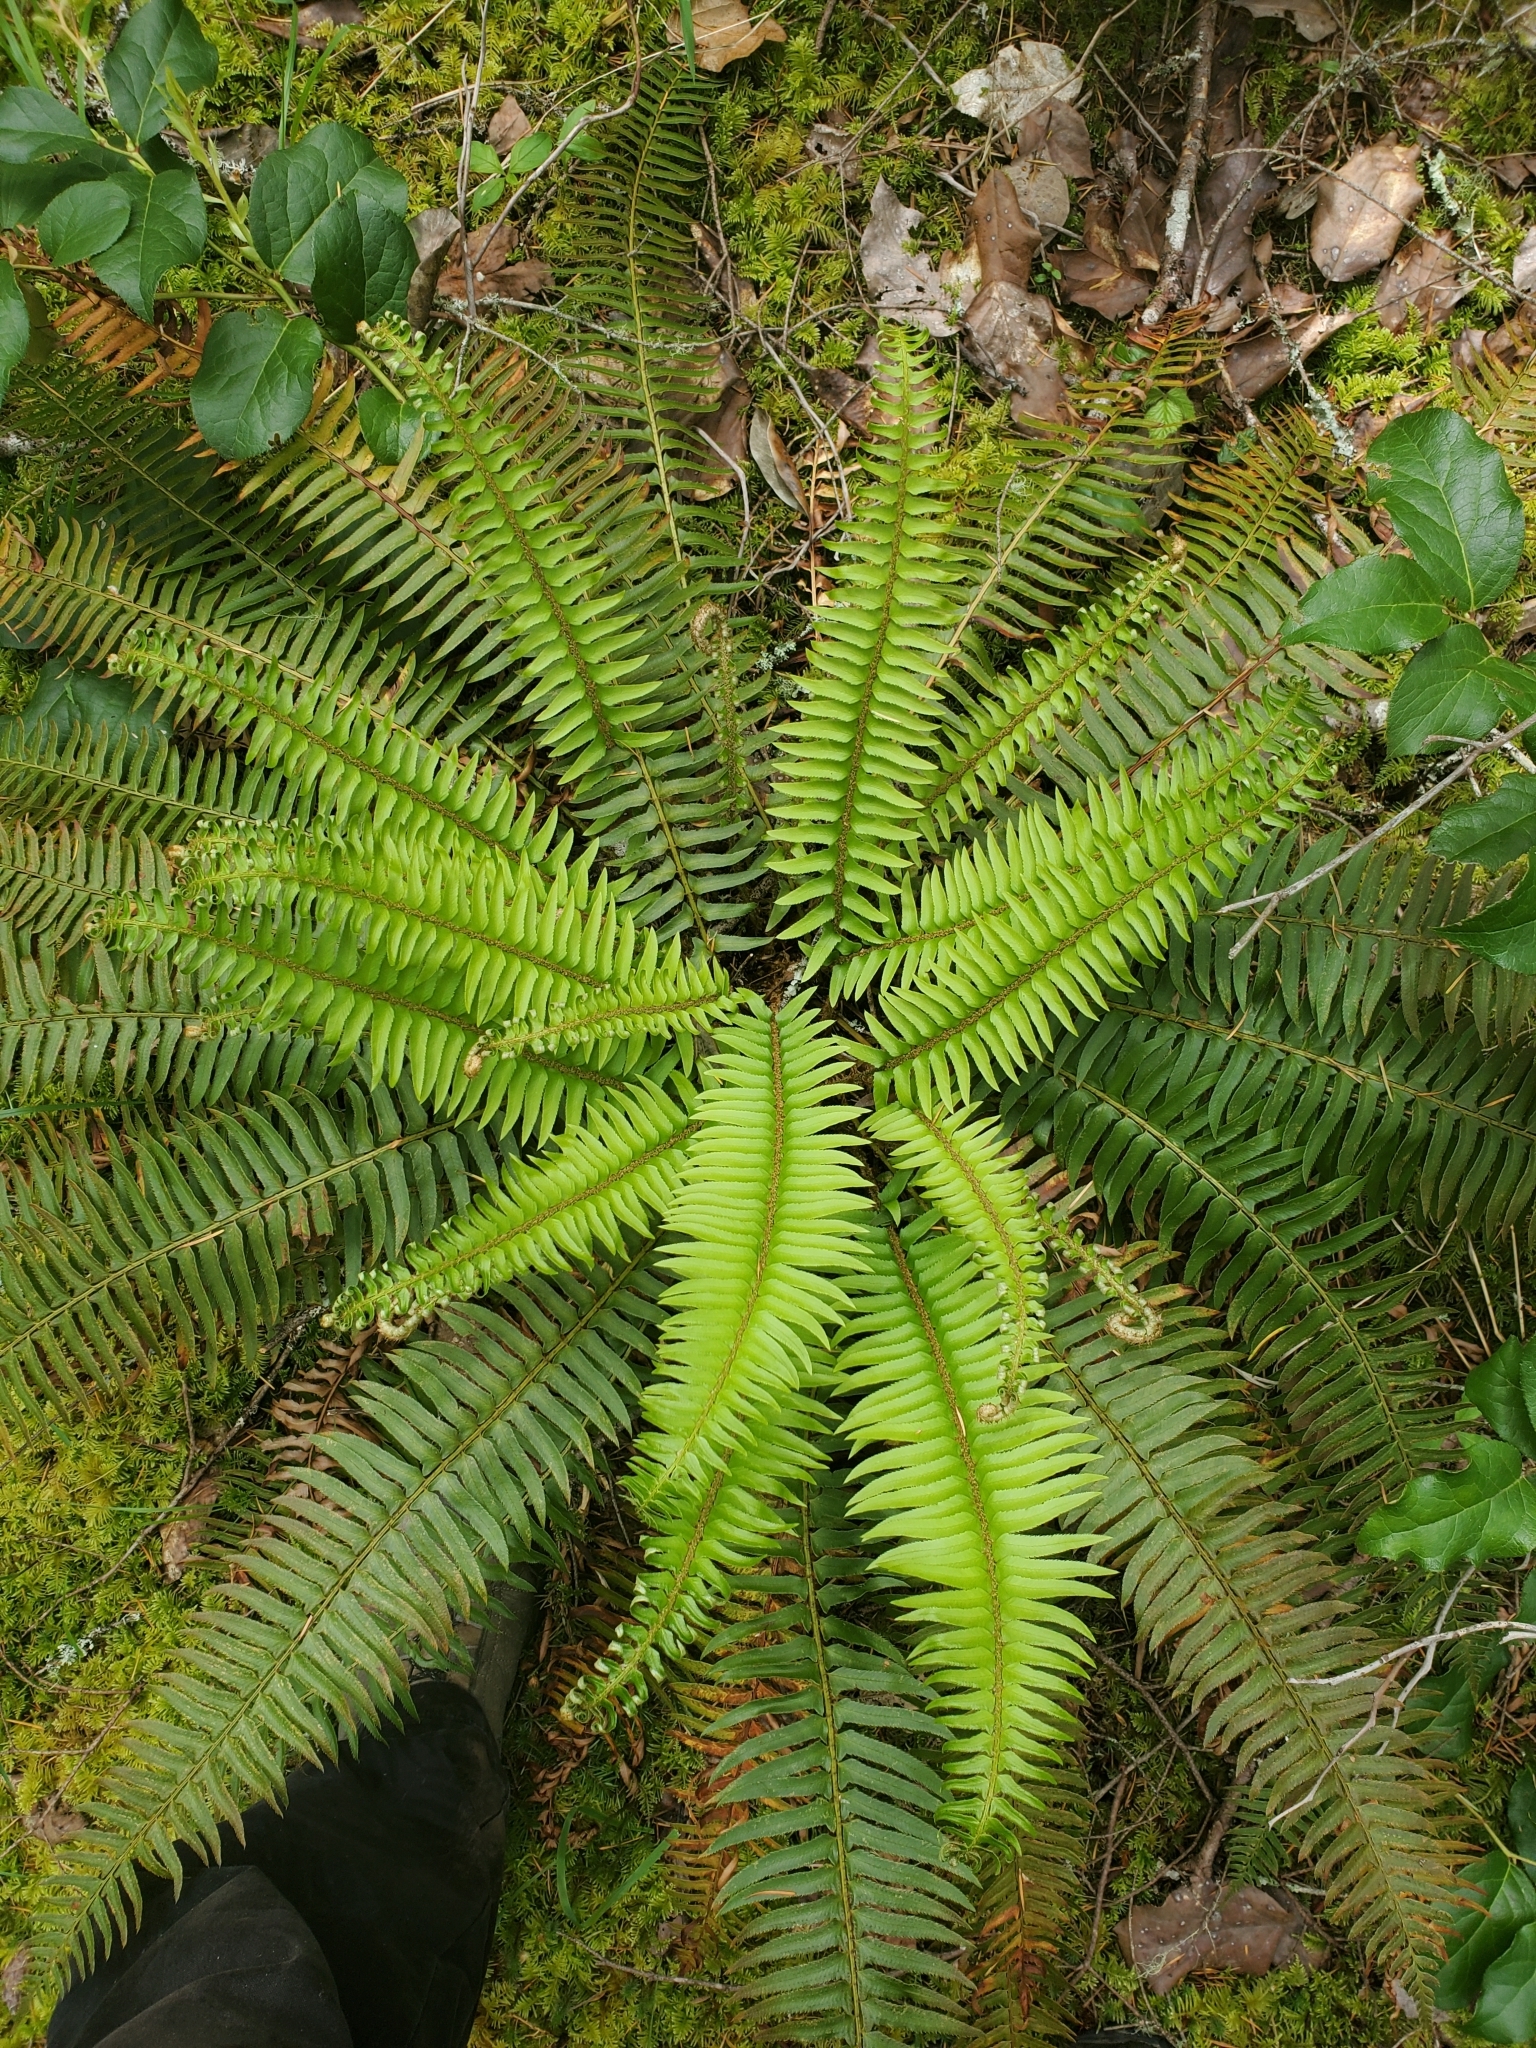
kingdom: Plantae
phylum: Tracheophyta
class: Polypodiopsida
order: Polypodiales
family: Dryopteridaceae
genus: Polystichum
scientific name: Polystichum munitum
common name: Western sword-fern
